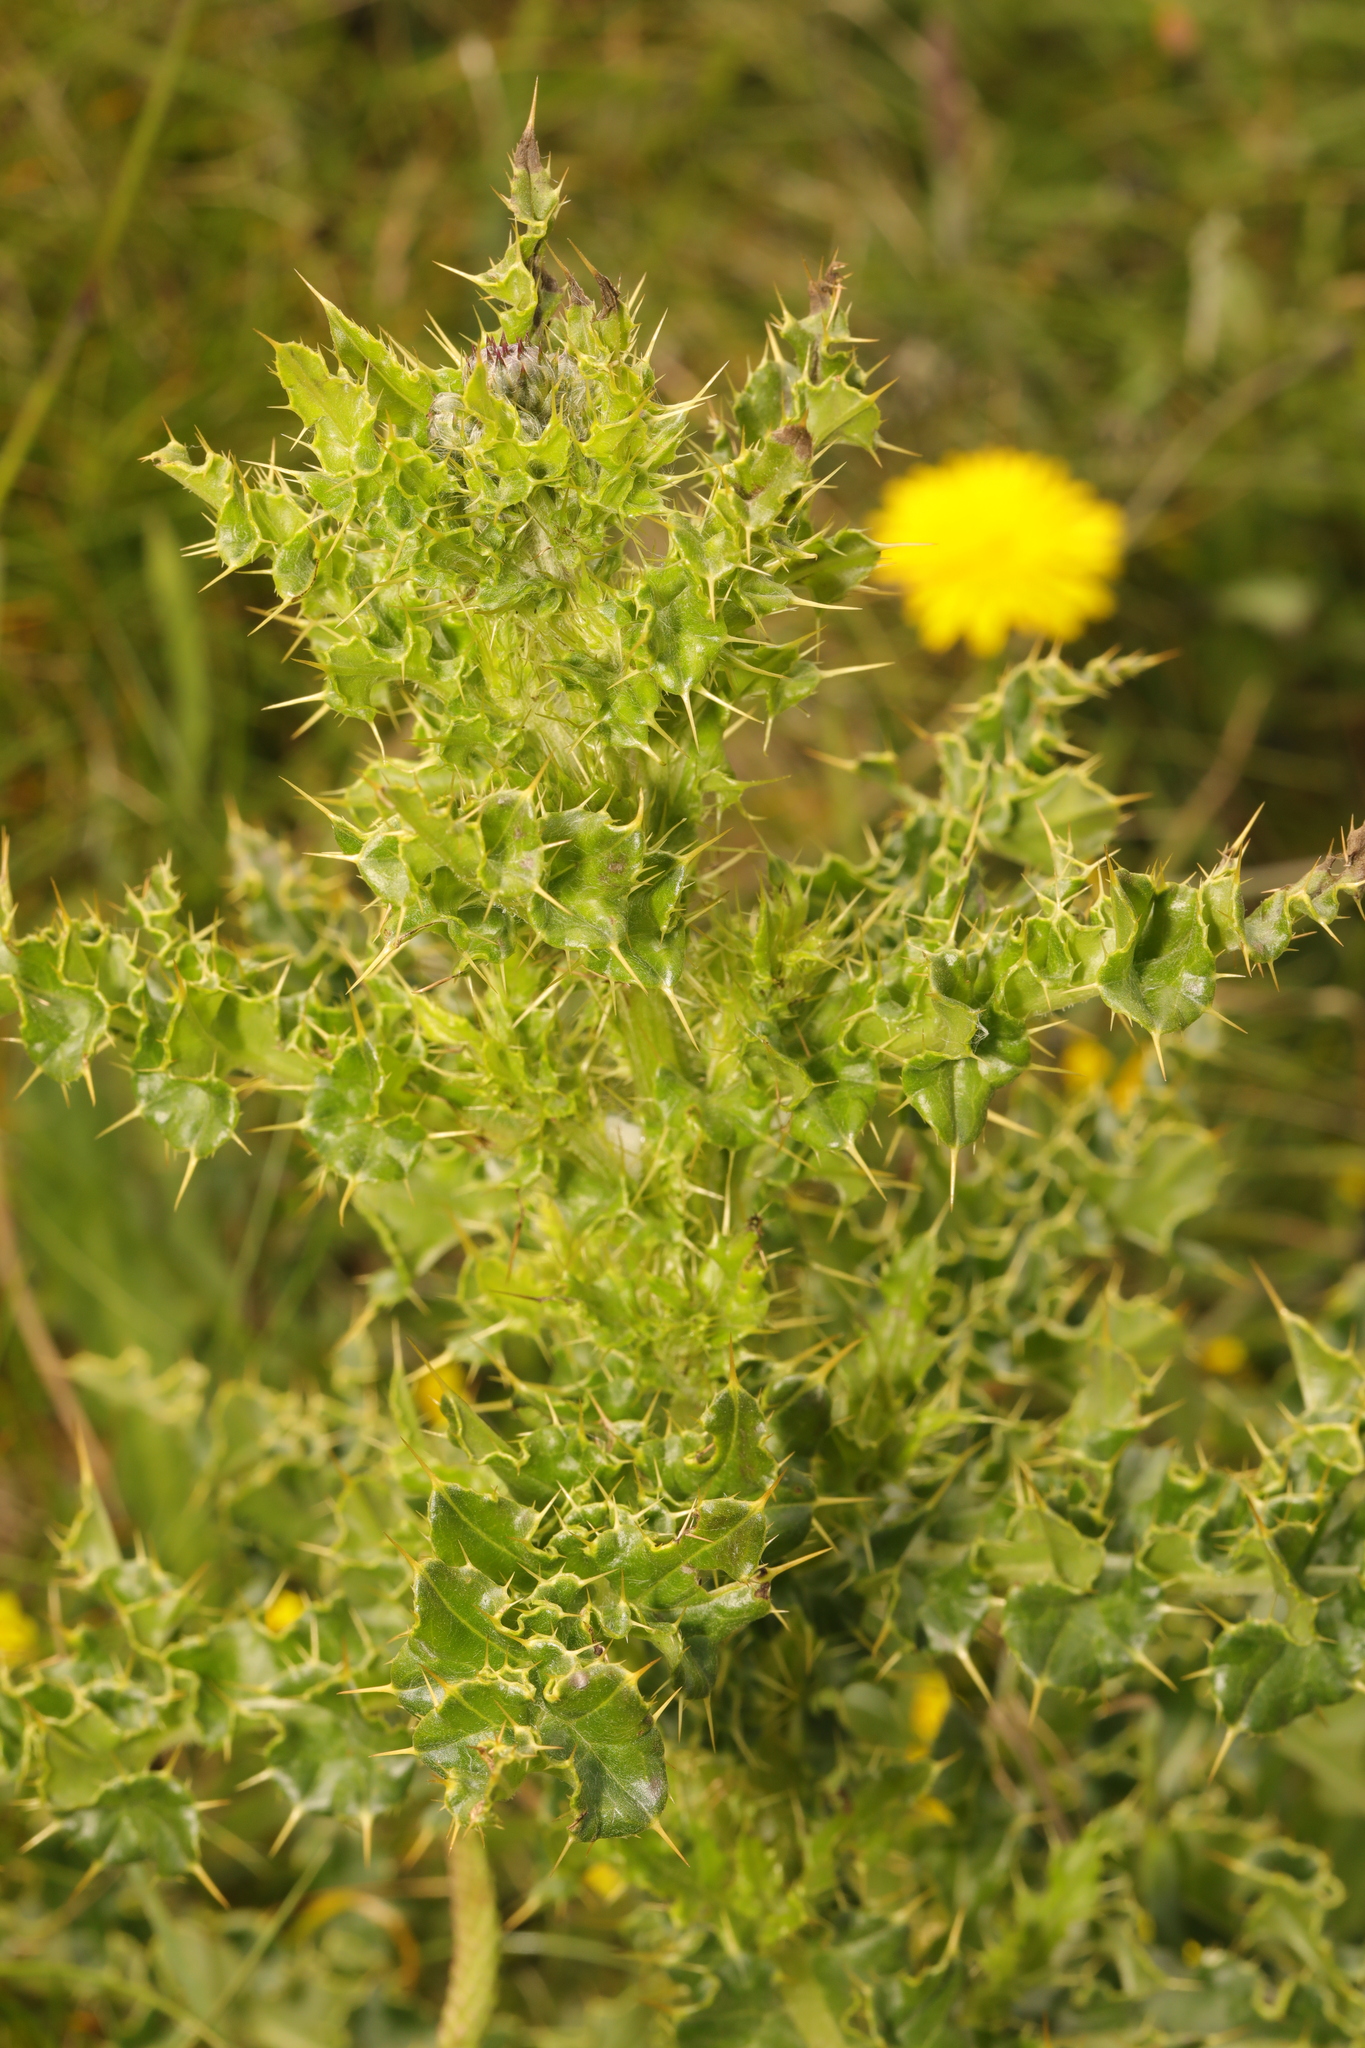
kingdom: Plantae
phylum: Tracheophyta
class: Magnoliopsida
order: Asterales
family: Asteraceae
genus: Cirsium
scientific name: Cirsium arvense
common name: Creeping thistle
